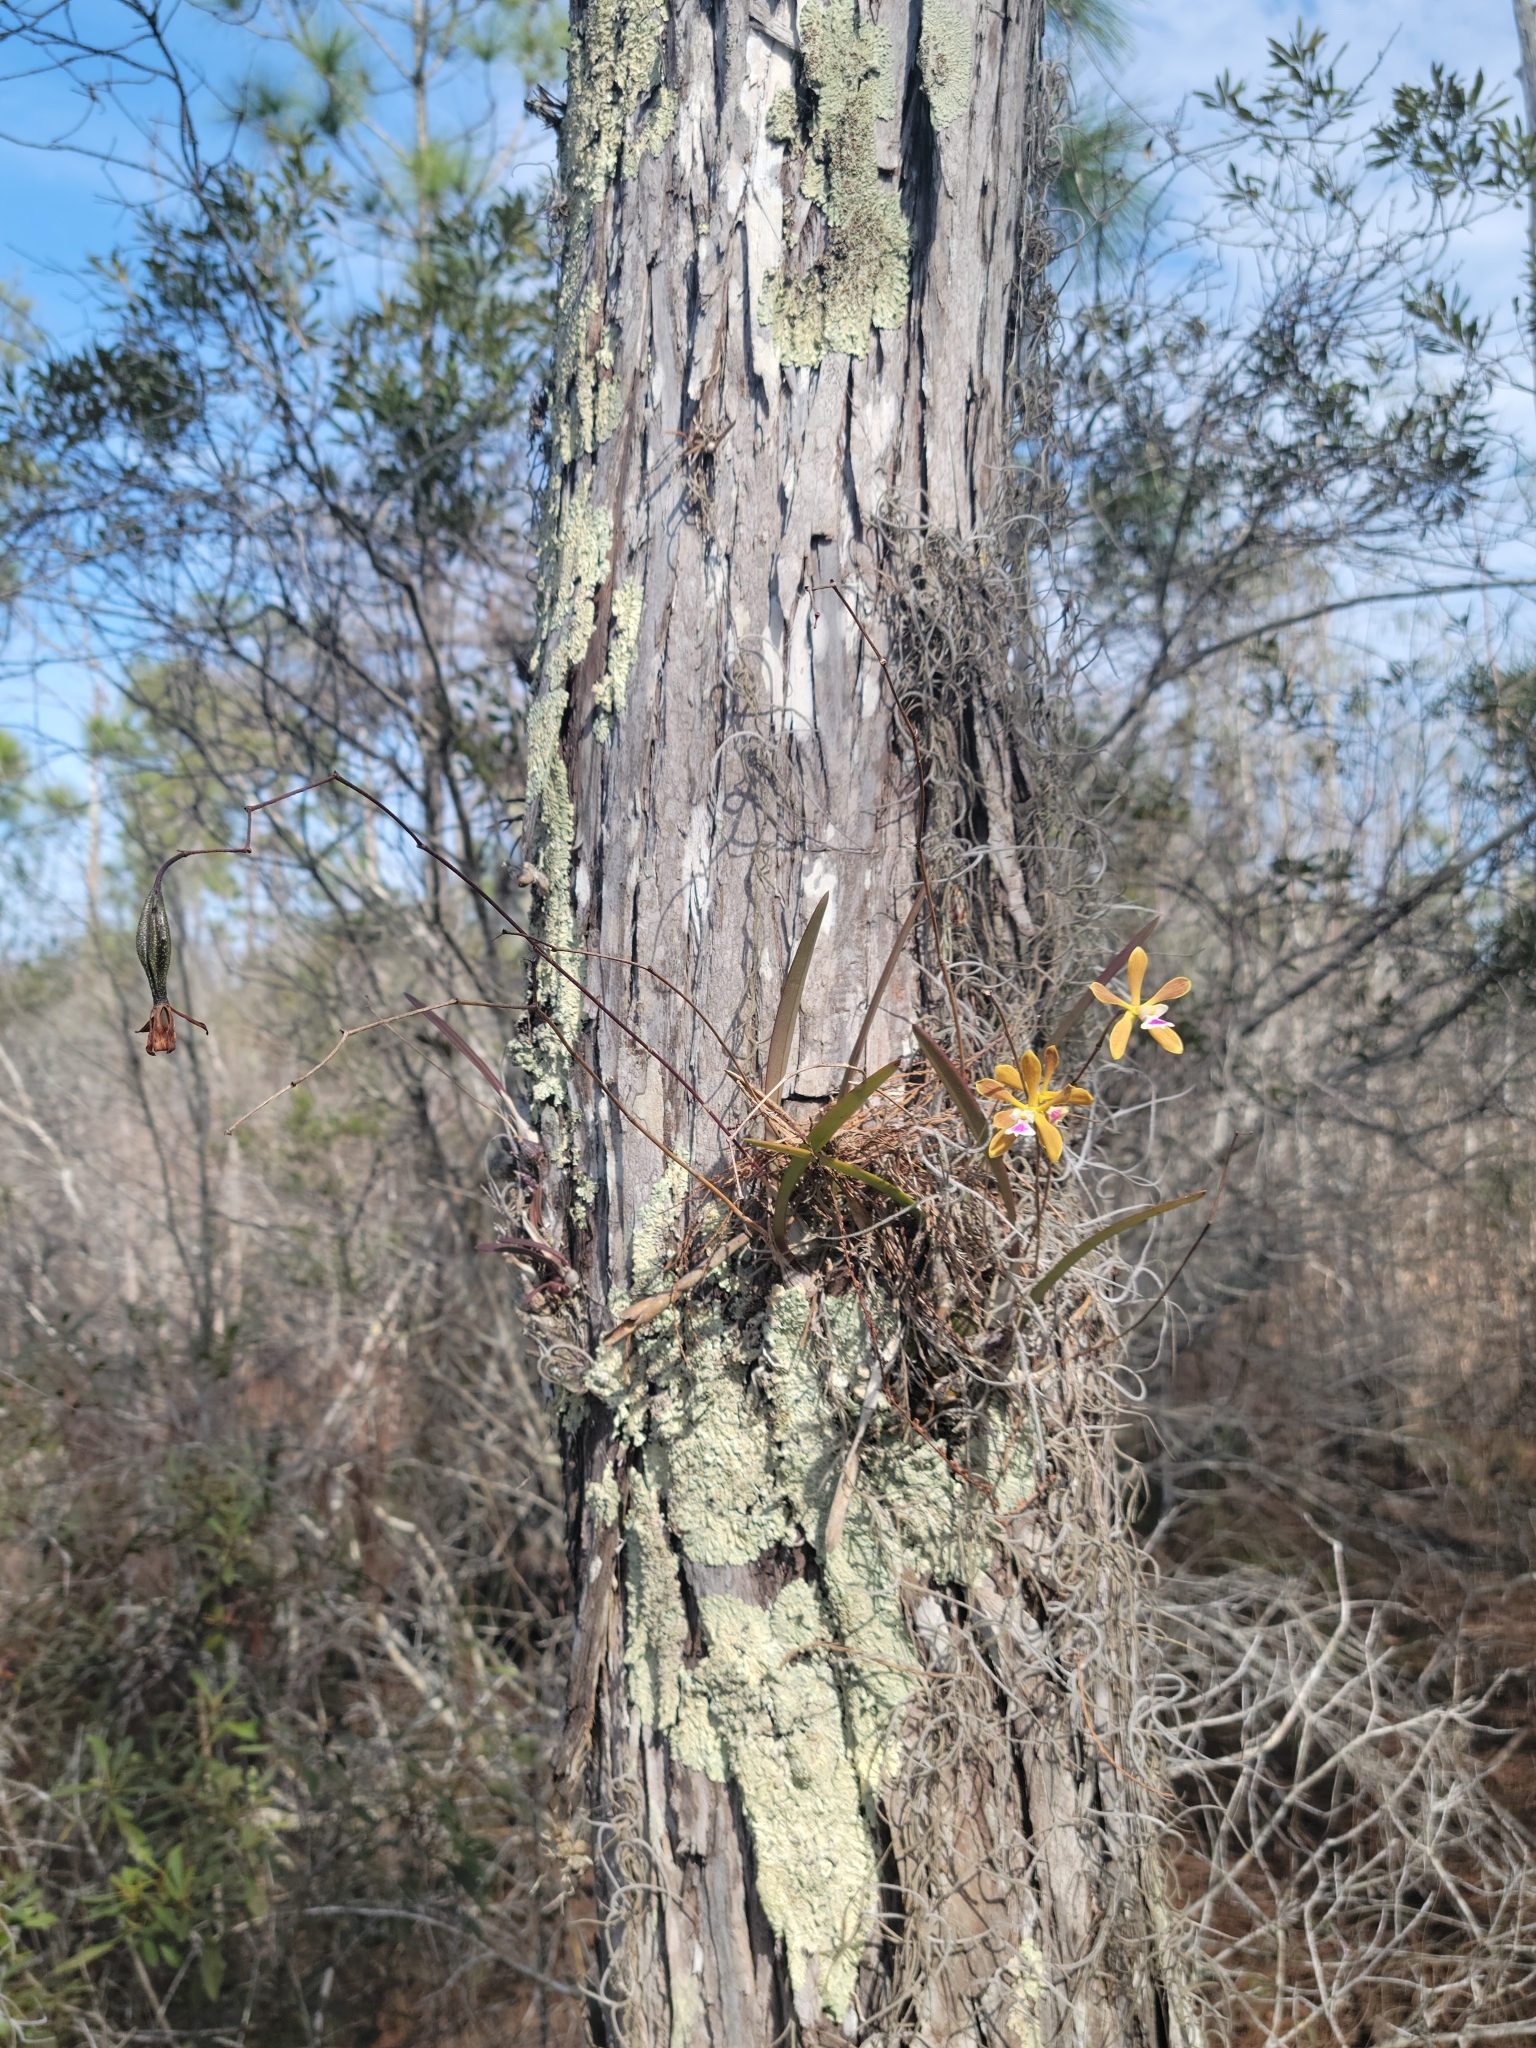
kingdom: Plantae
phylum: Tracheophyta
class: Liliopsida
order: Asparagales
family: Orchidaceae
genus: Encyclia
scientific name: Encyclia tampensis
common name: Florida butterfly orchid
